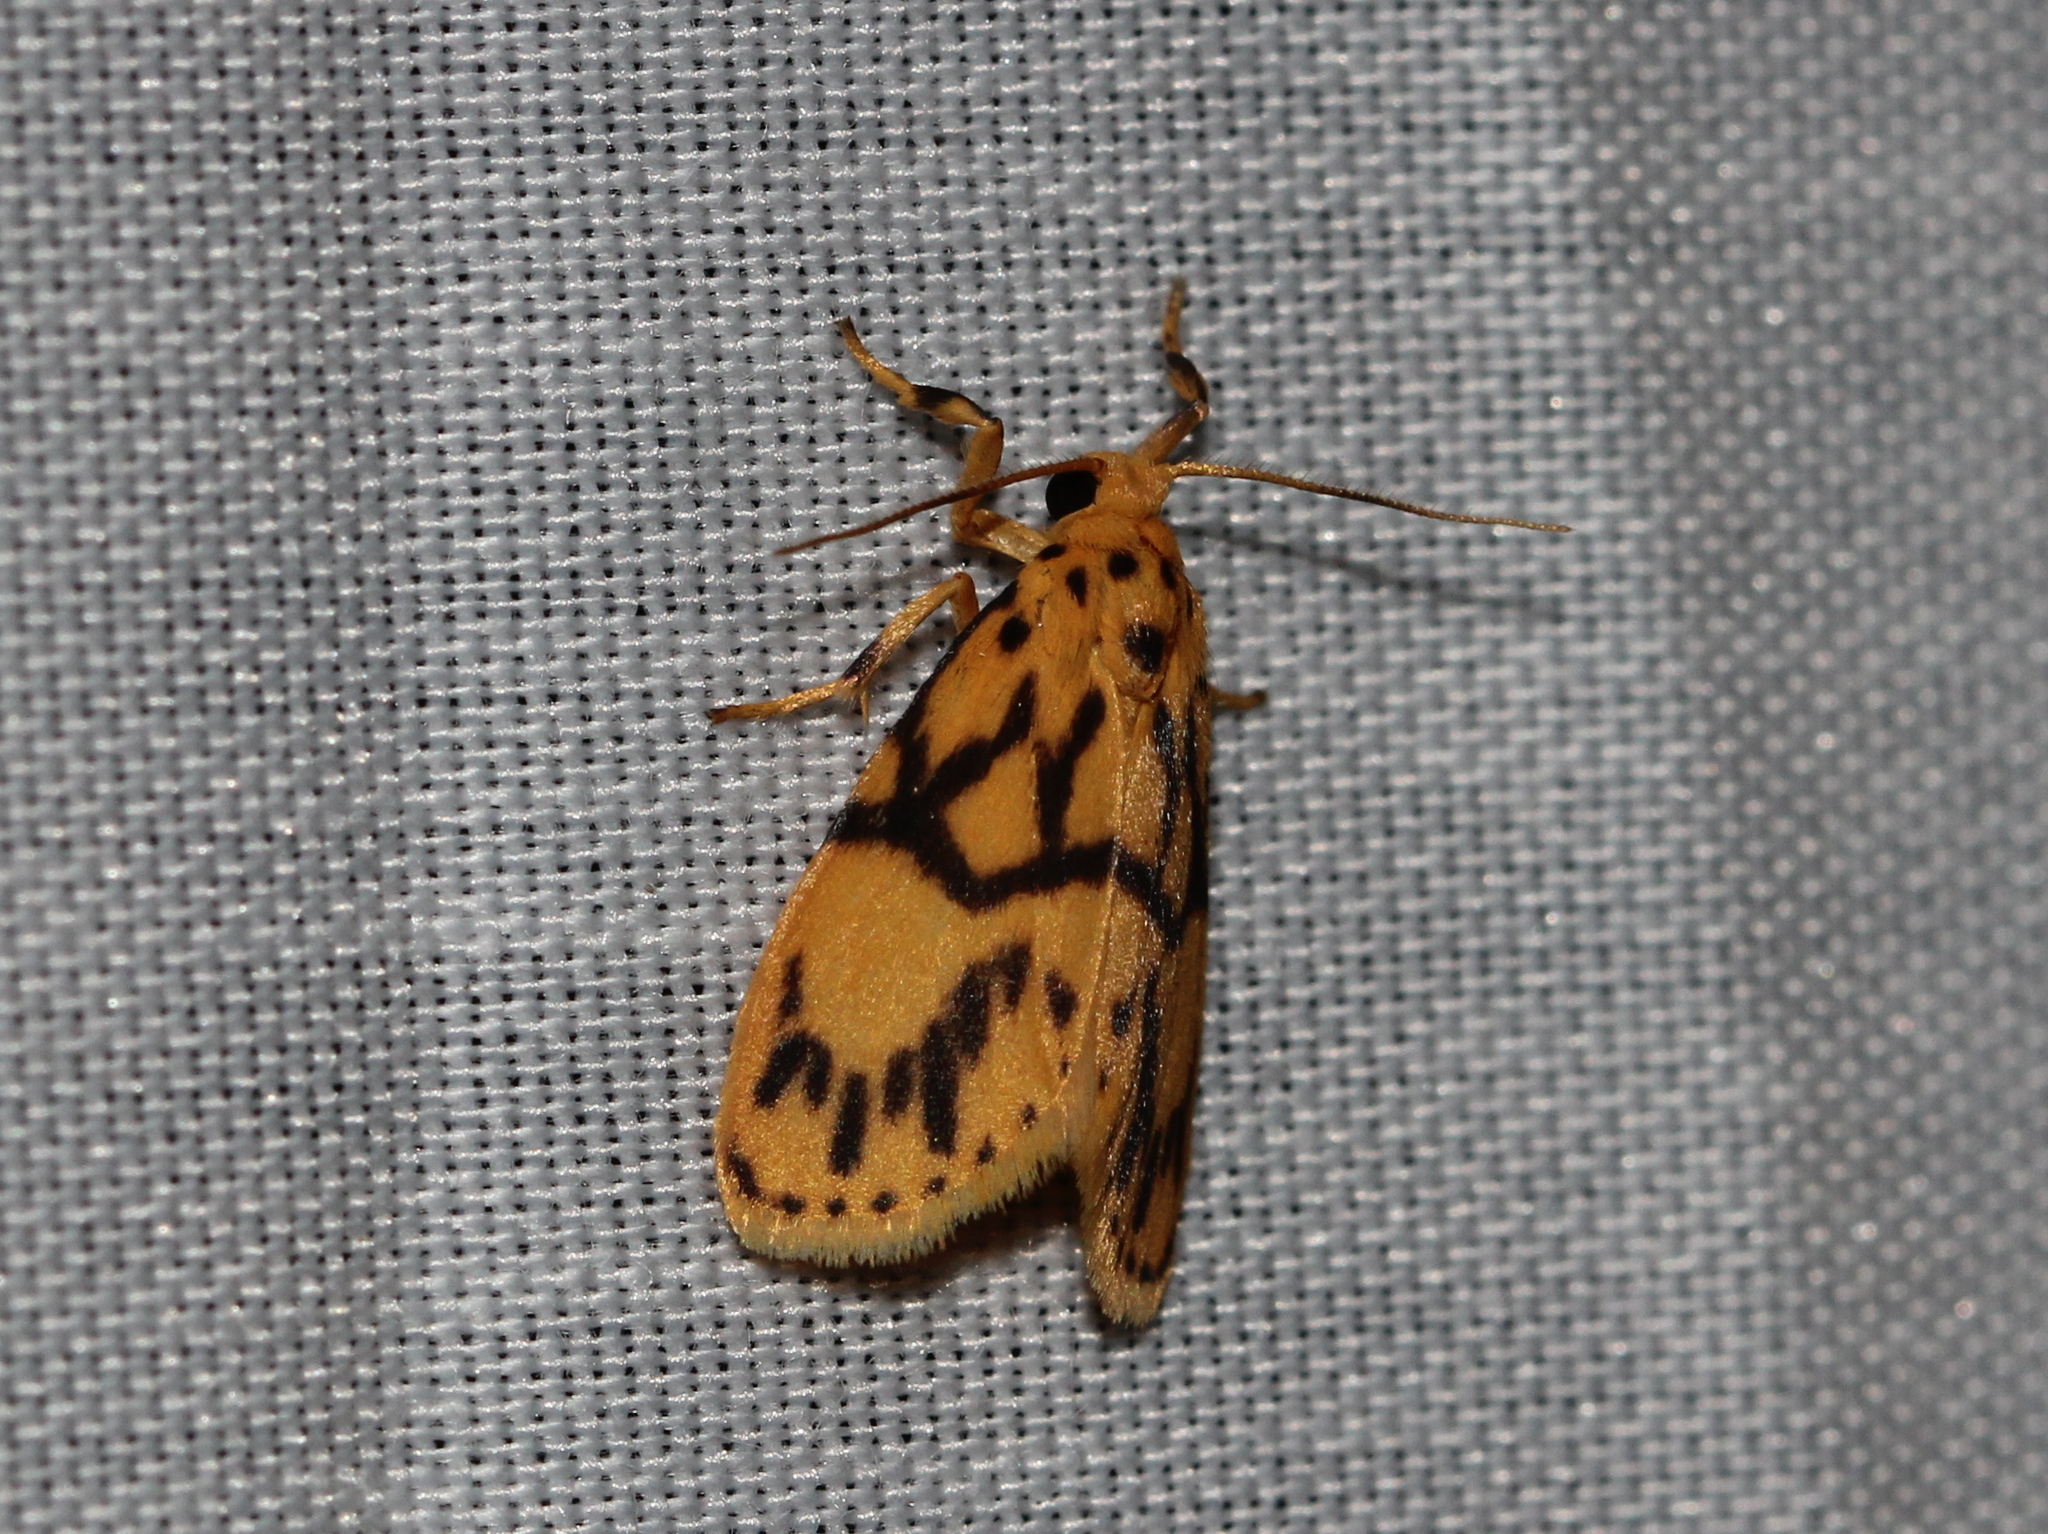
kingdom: Animalia
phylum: Arthropoda
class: Insecta
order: Lepidoptera
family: Erebidae
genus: Miltochrista
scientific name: Miltochrista terminospota
